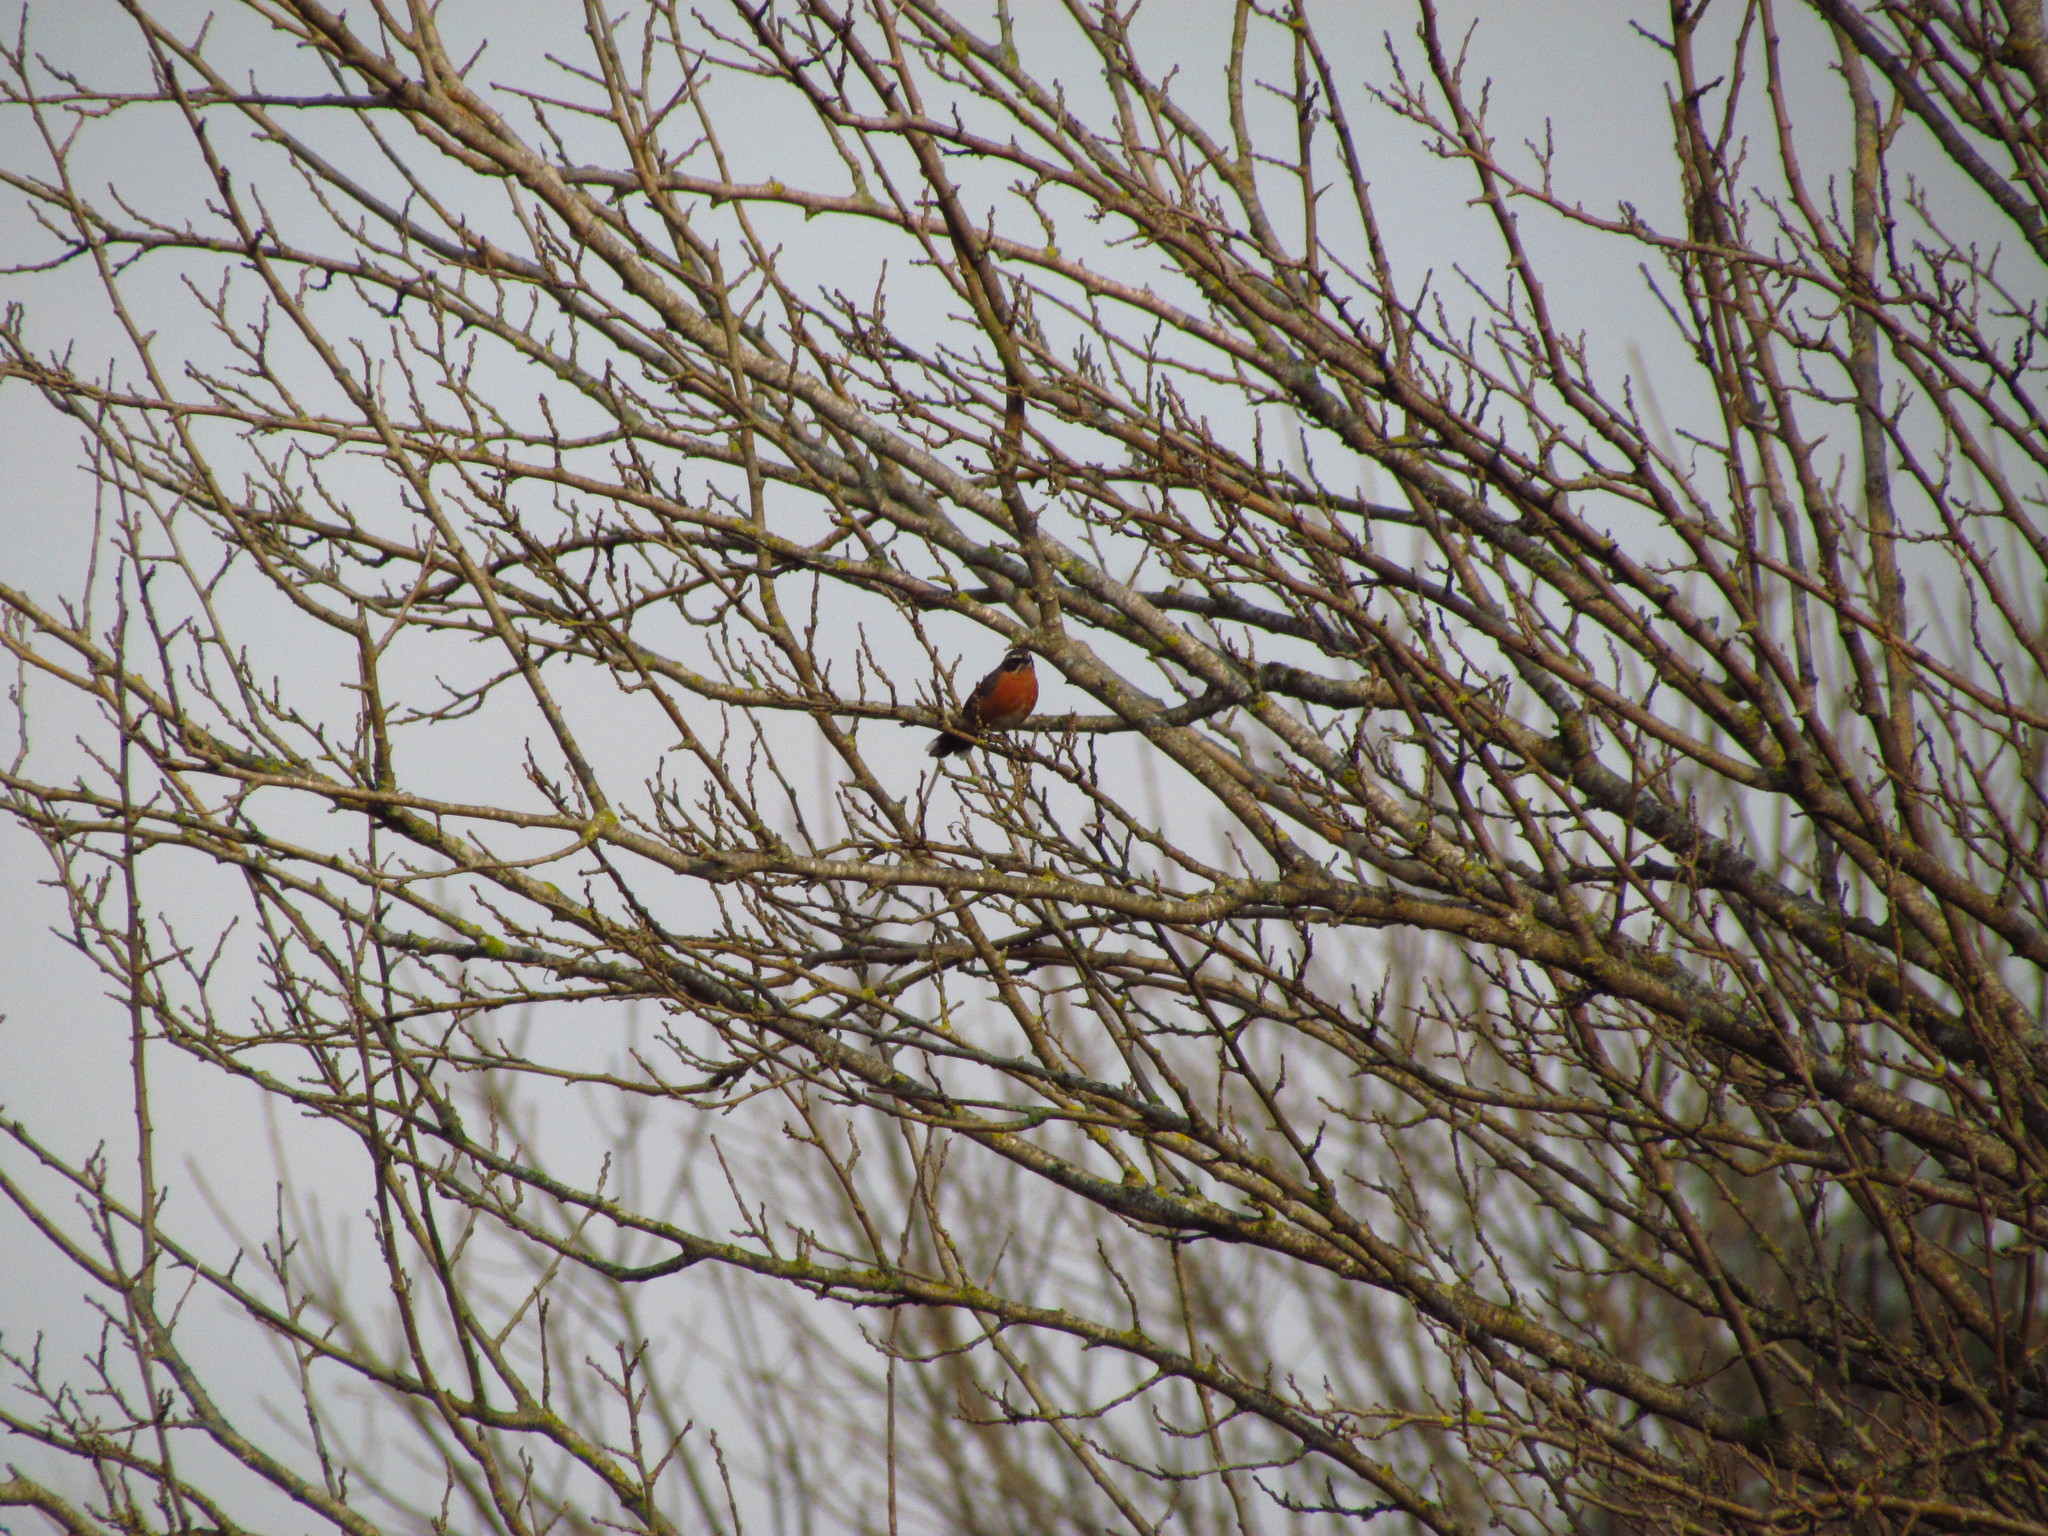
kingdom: Animalia
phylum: Chordata
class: Aves
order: Passeriformes
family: Thraupidae
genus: Poospiza
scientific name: Poospiza nigrorufa
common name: Black-and-rufous warbling finch
